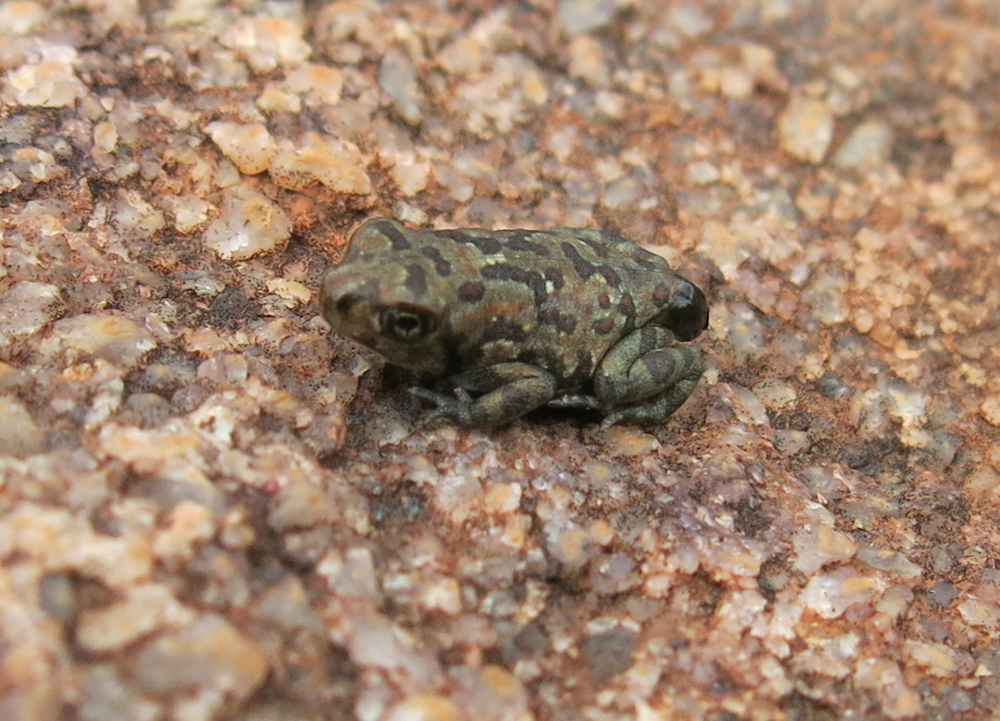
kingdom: Animalia
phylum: Chordata
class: Amphibia
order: Anura
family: Bufonidae
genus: Poyntonophrynus
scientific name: Poyntonophrynus fenoulheti
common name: Fenoulhet's toad
